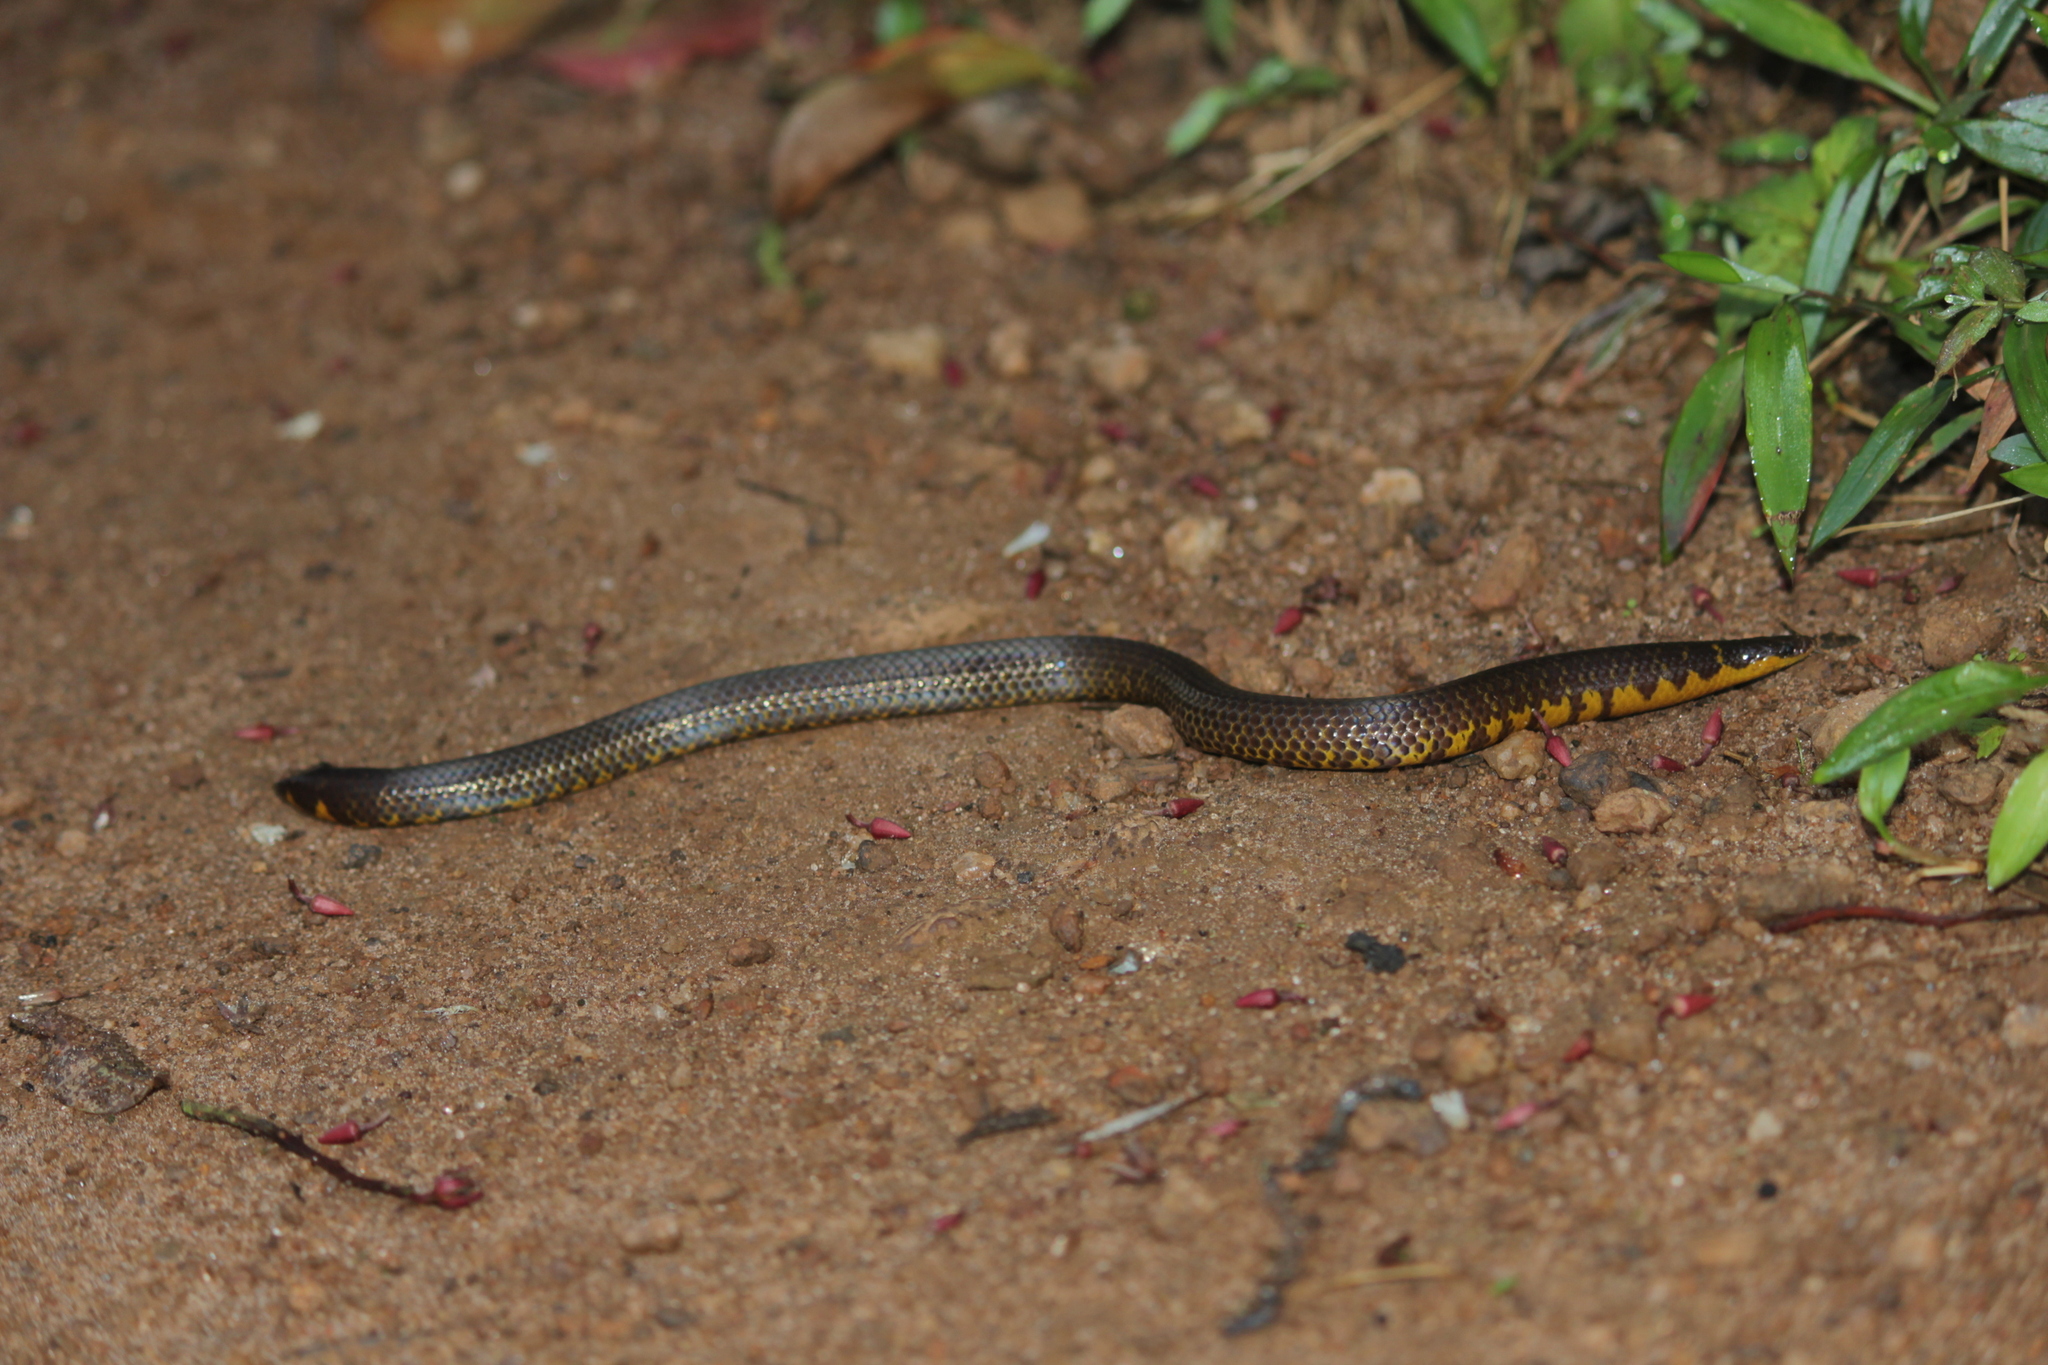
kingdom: Animalia
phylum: Chordata
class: Squamata
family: Uropeltidae
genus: Uropeltis
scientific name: Uropeltis ellioti
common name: Elliot's earth snake
